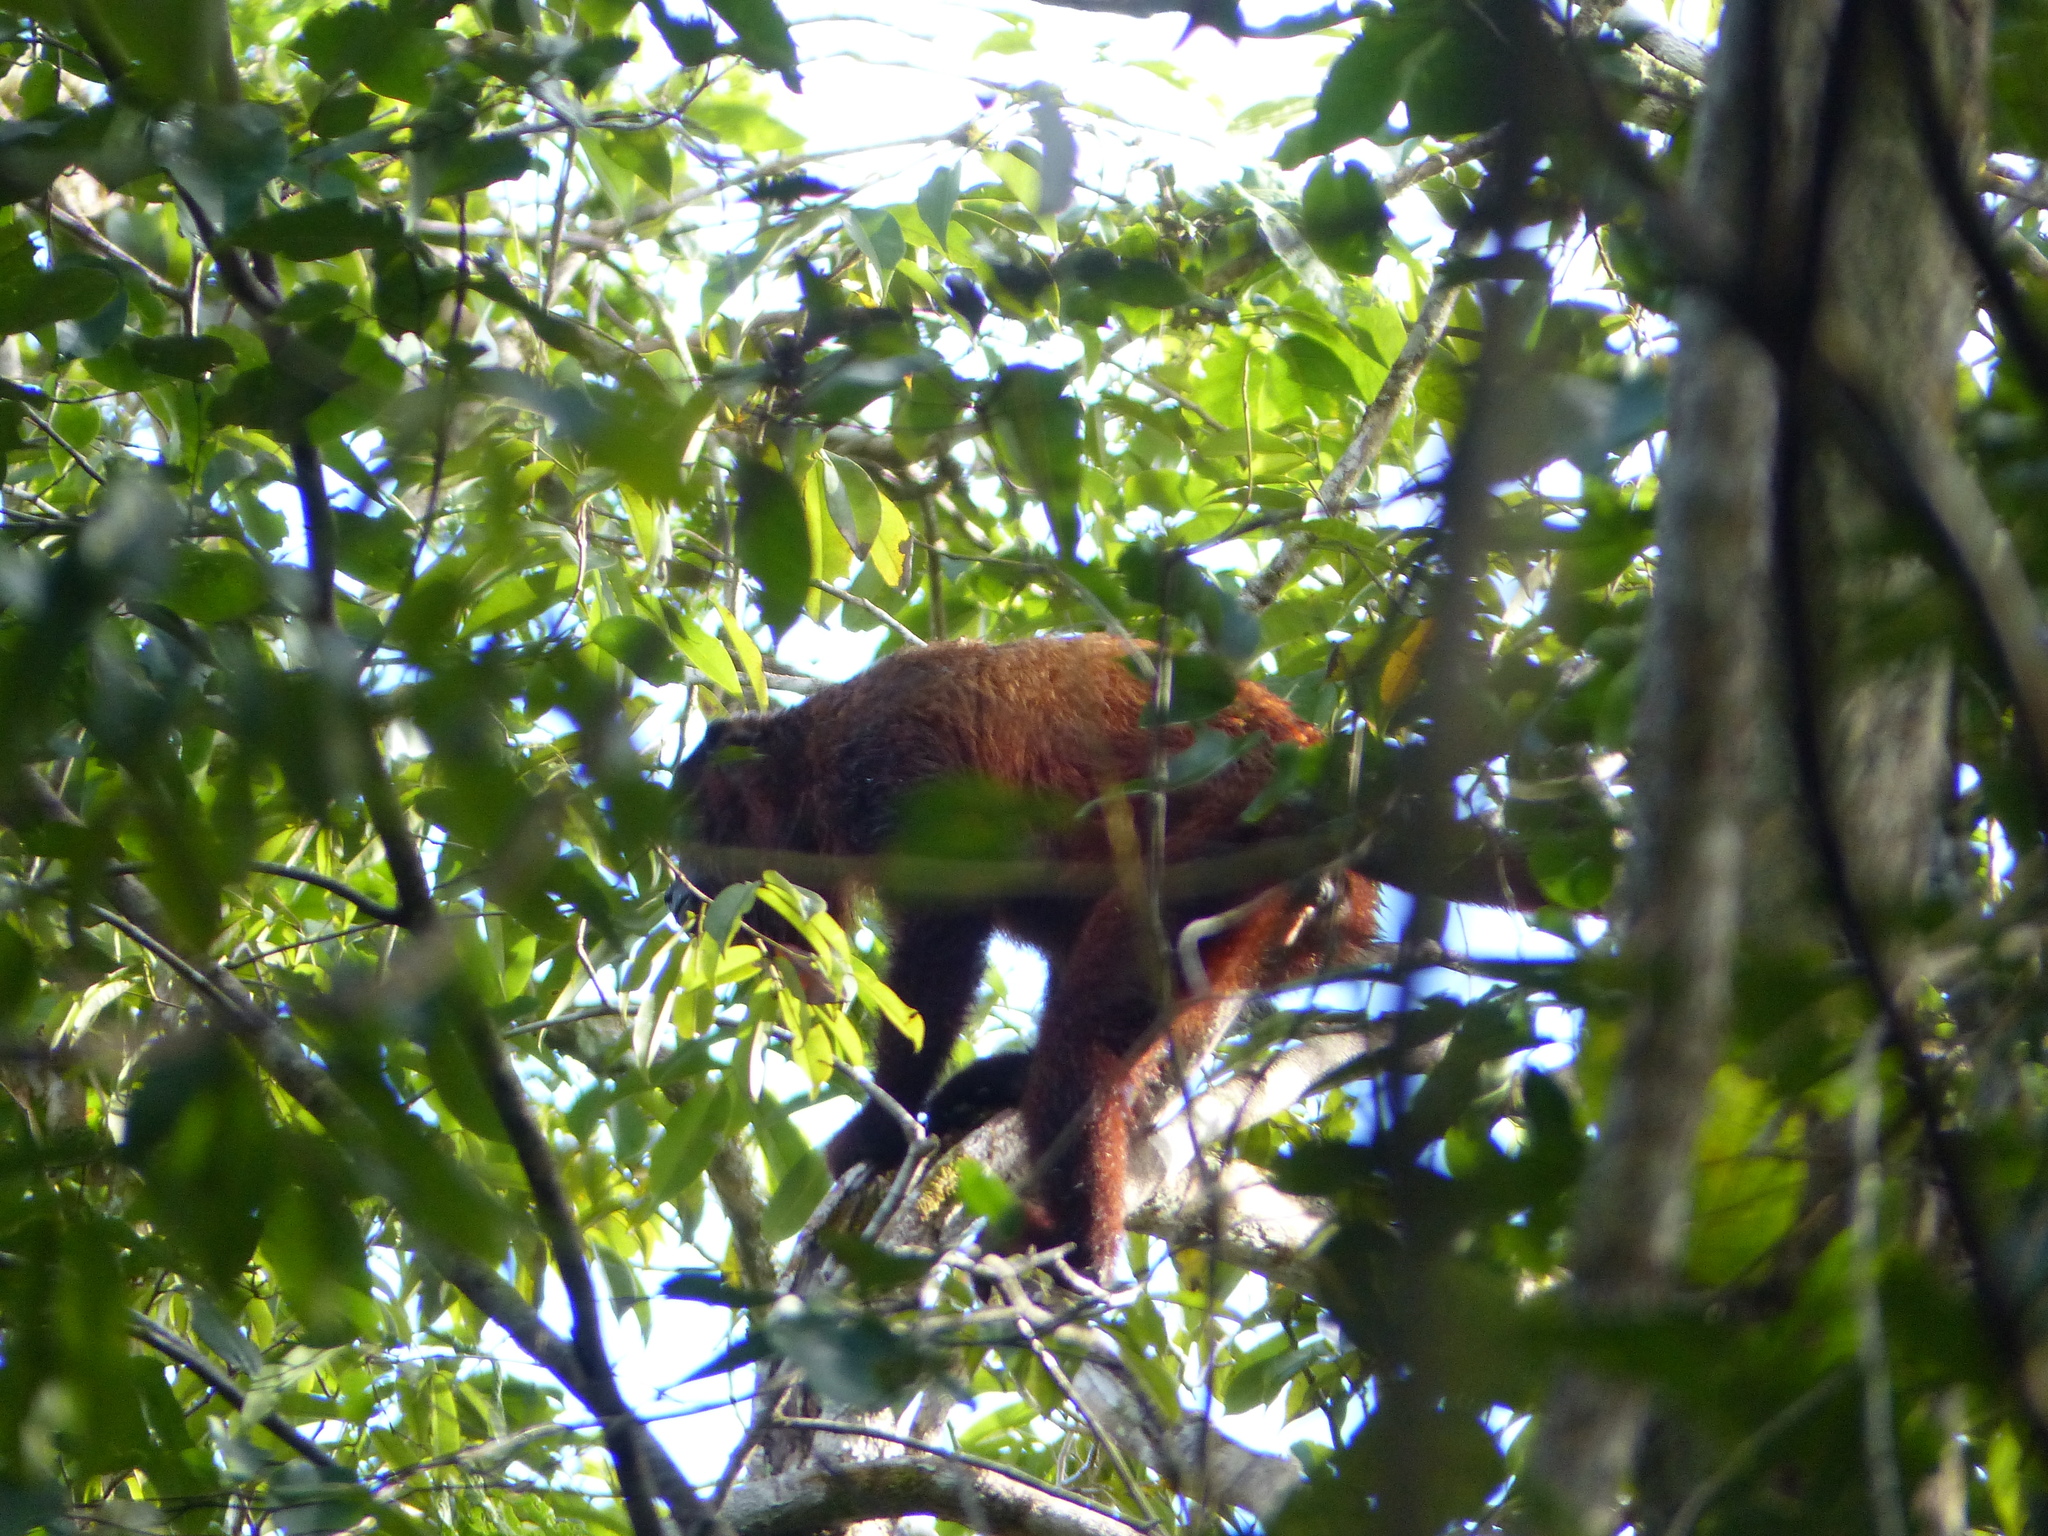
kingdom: Animalia
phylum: Chordata
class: Mammalia
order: Primates
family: Atelidae
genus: Alouatta
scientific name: Alouatta macconnelli
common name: Guyanan red howler
